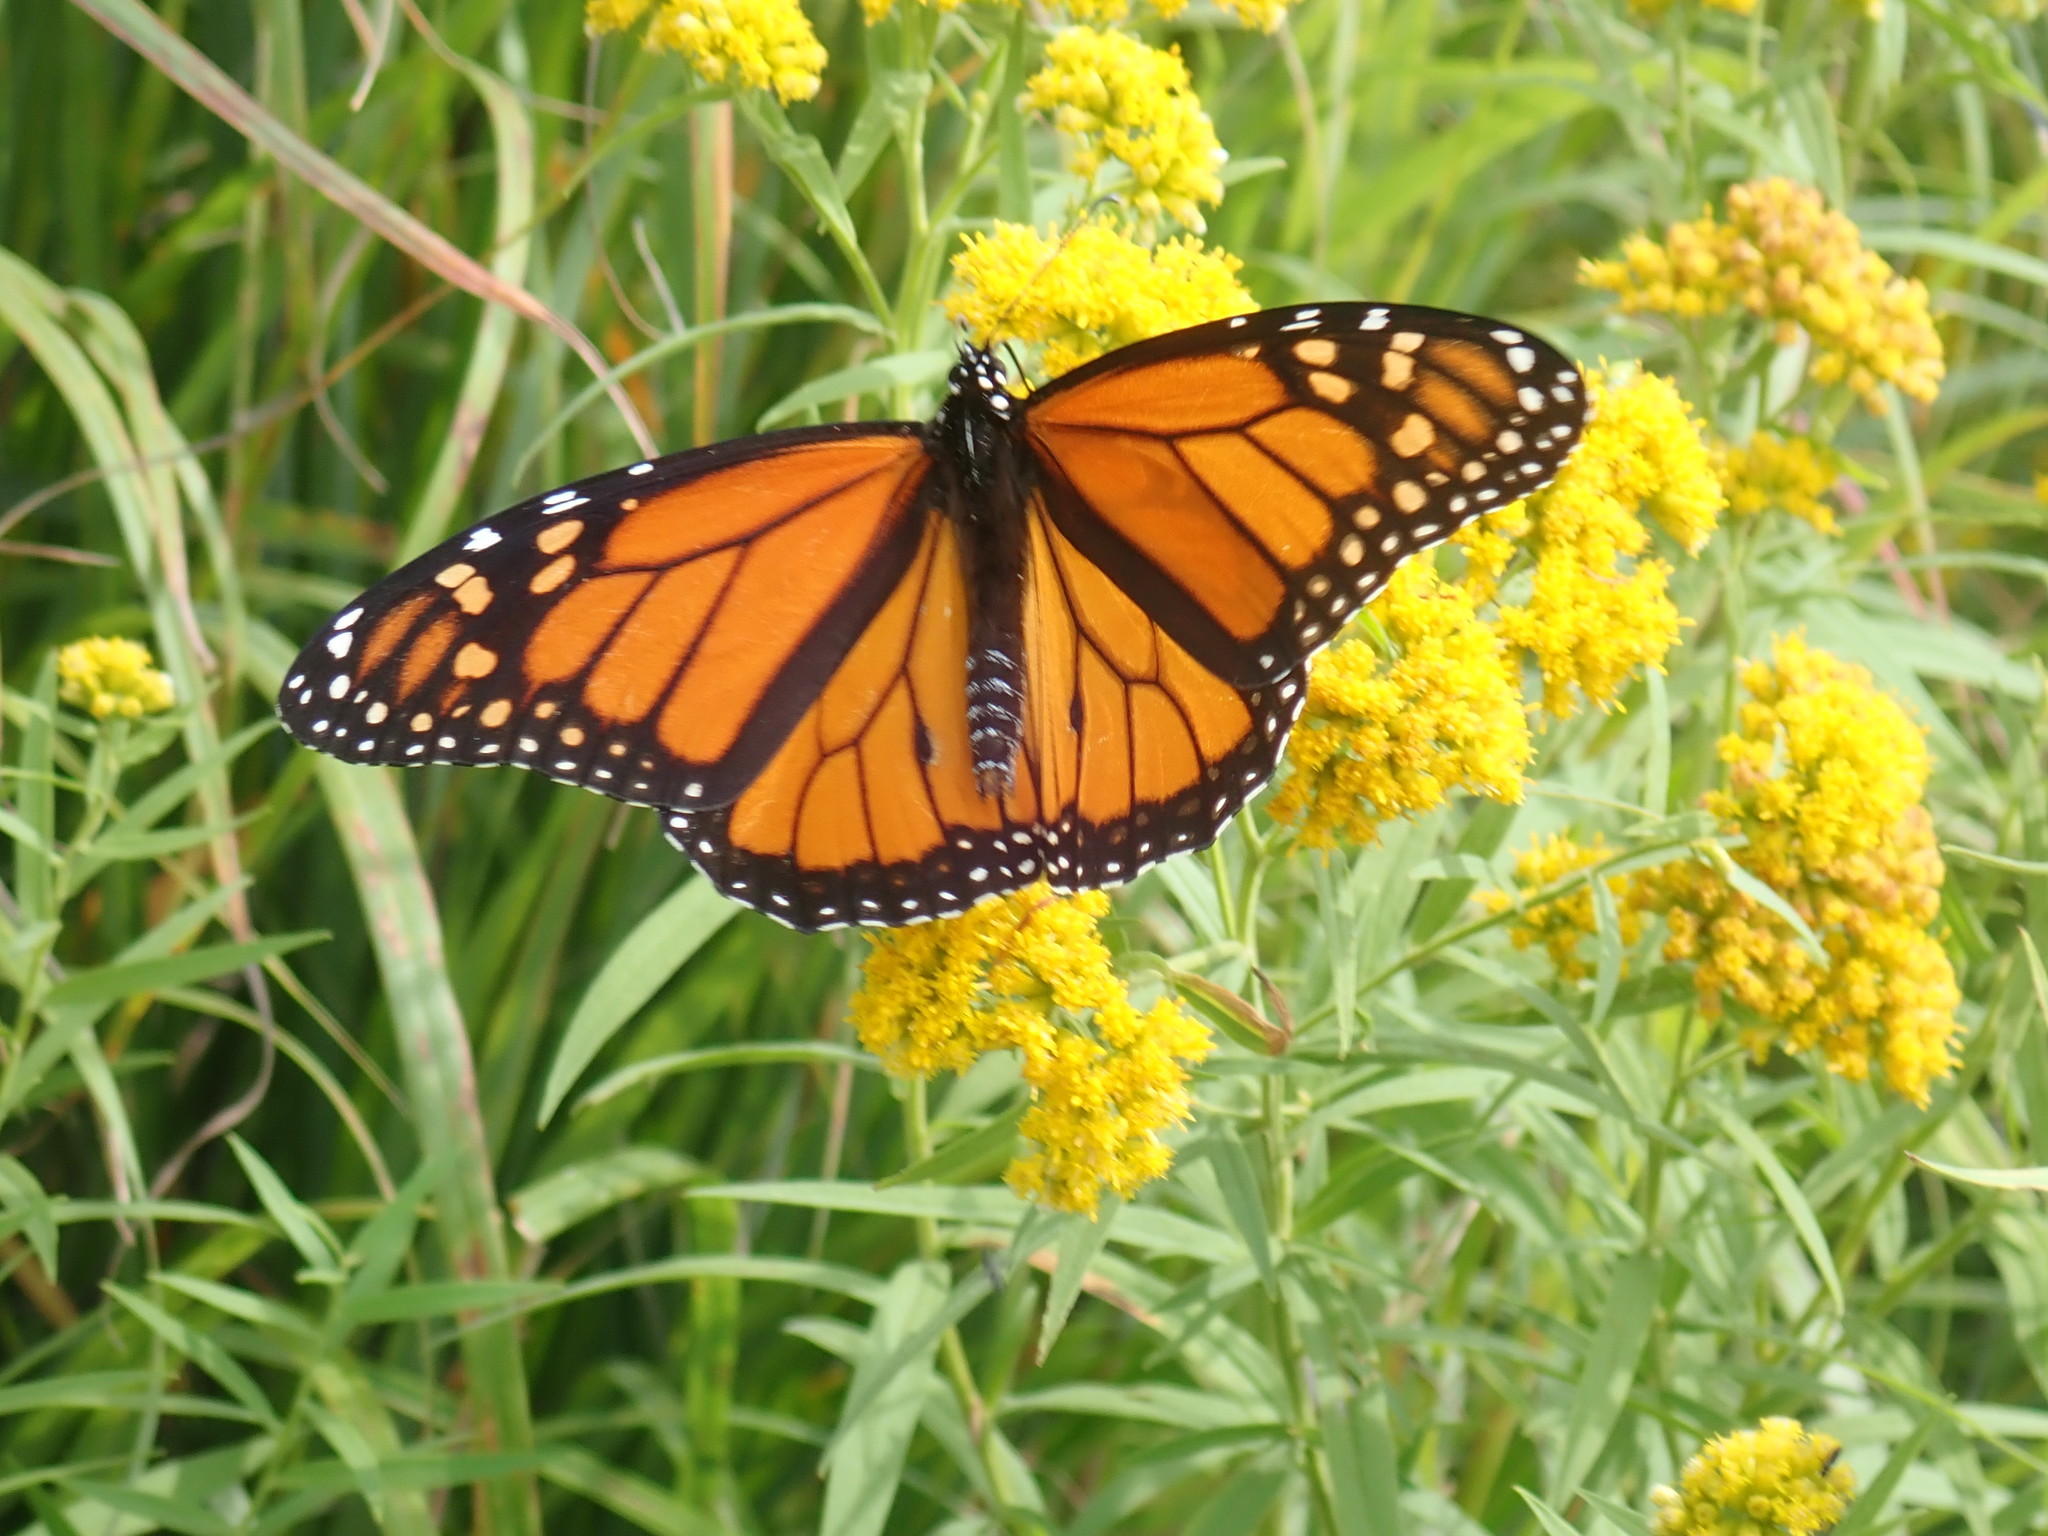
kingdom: Animalia
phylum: Arthropoda
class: Insecta
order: Lepidoptera
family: Nymphalidae
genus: Danaus
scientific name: Danaus plexippus
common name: Monarch
